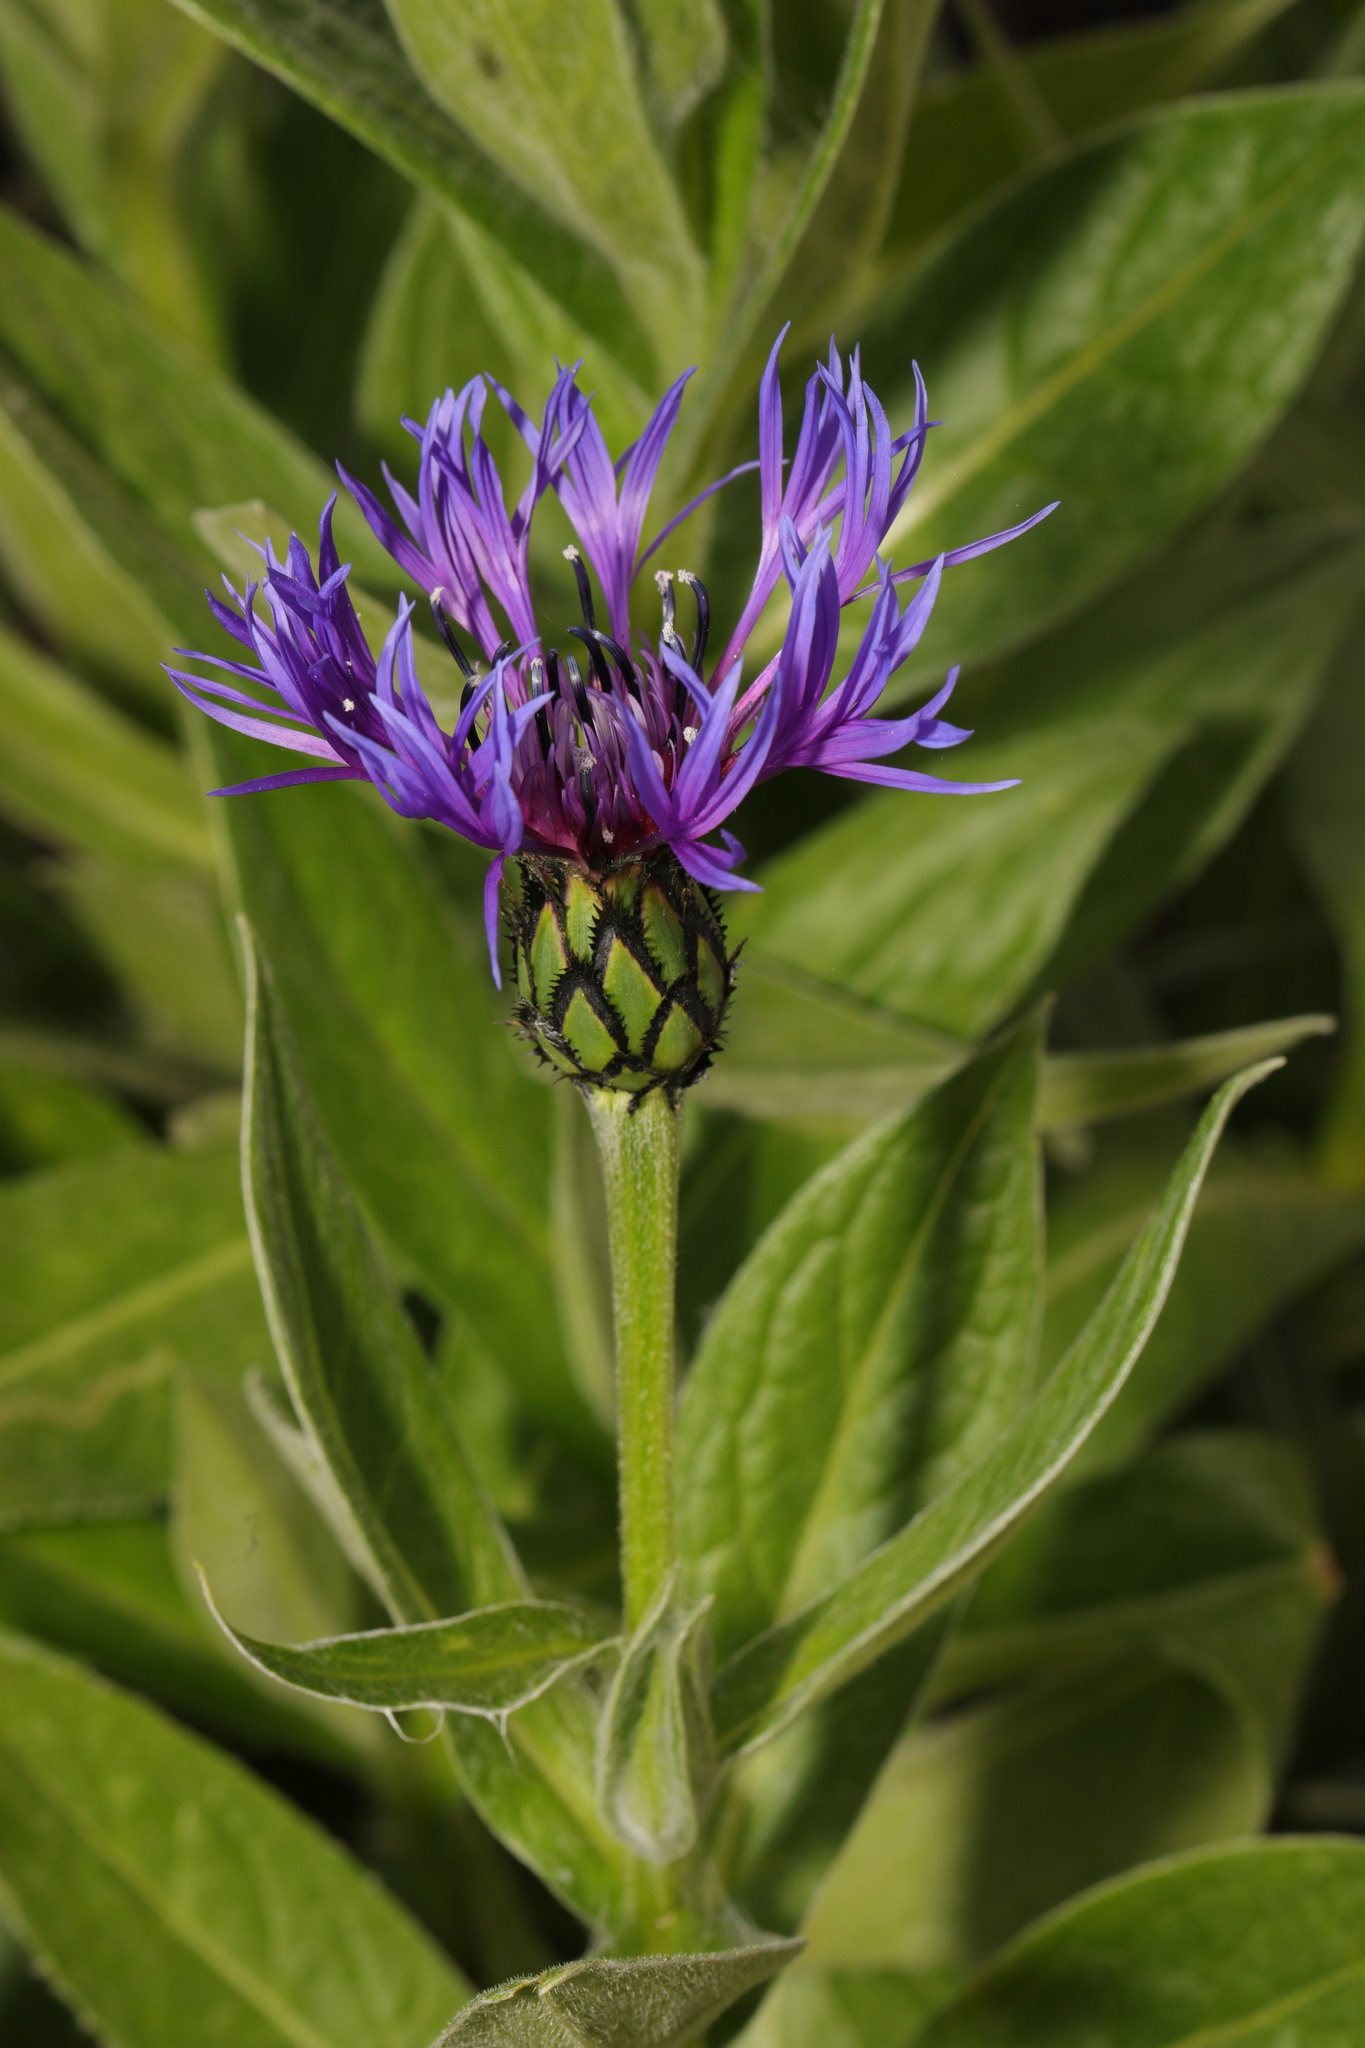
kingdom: Plantae
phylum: Tracheophyta
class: Magnoliopsida
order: Asterales
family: Asteraceae
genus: Centaurea
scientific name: Centaurea montana
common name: Perennial cornflower
